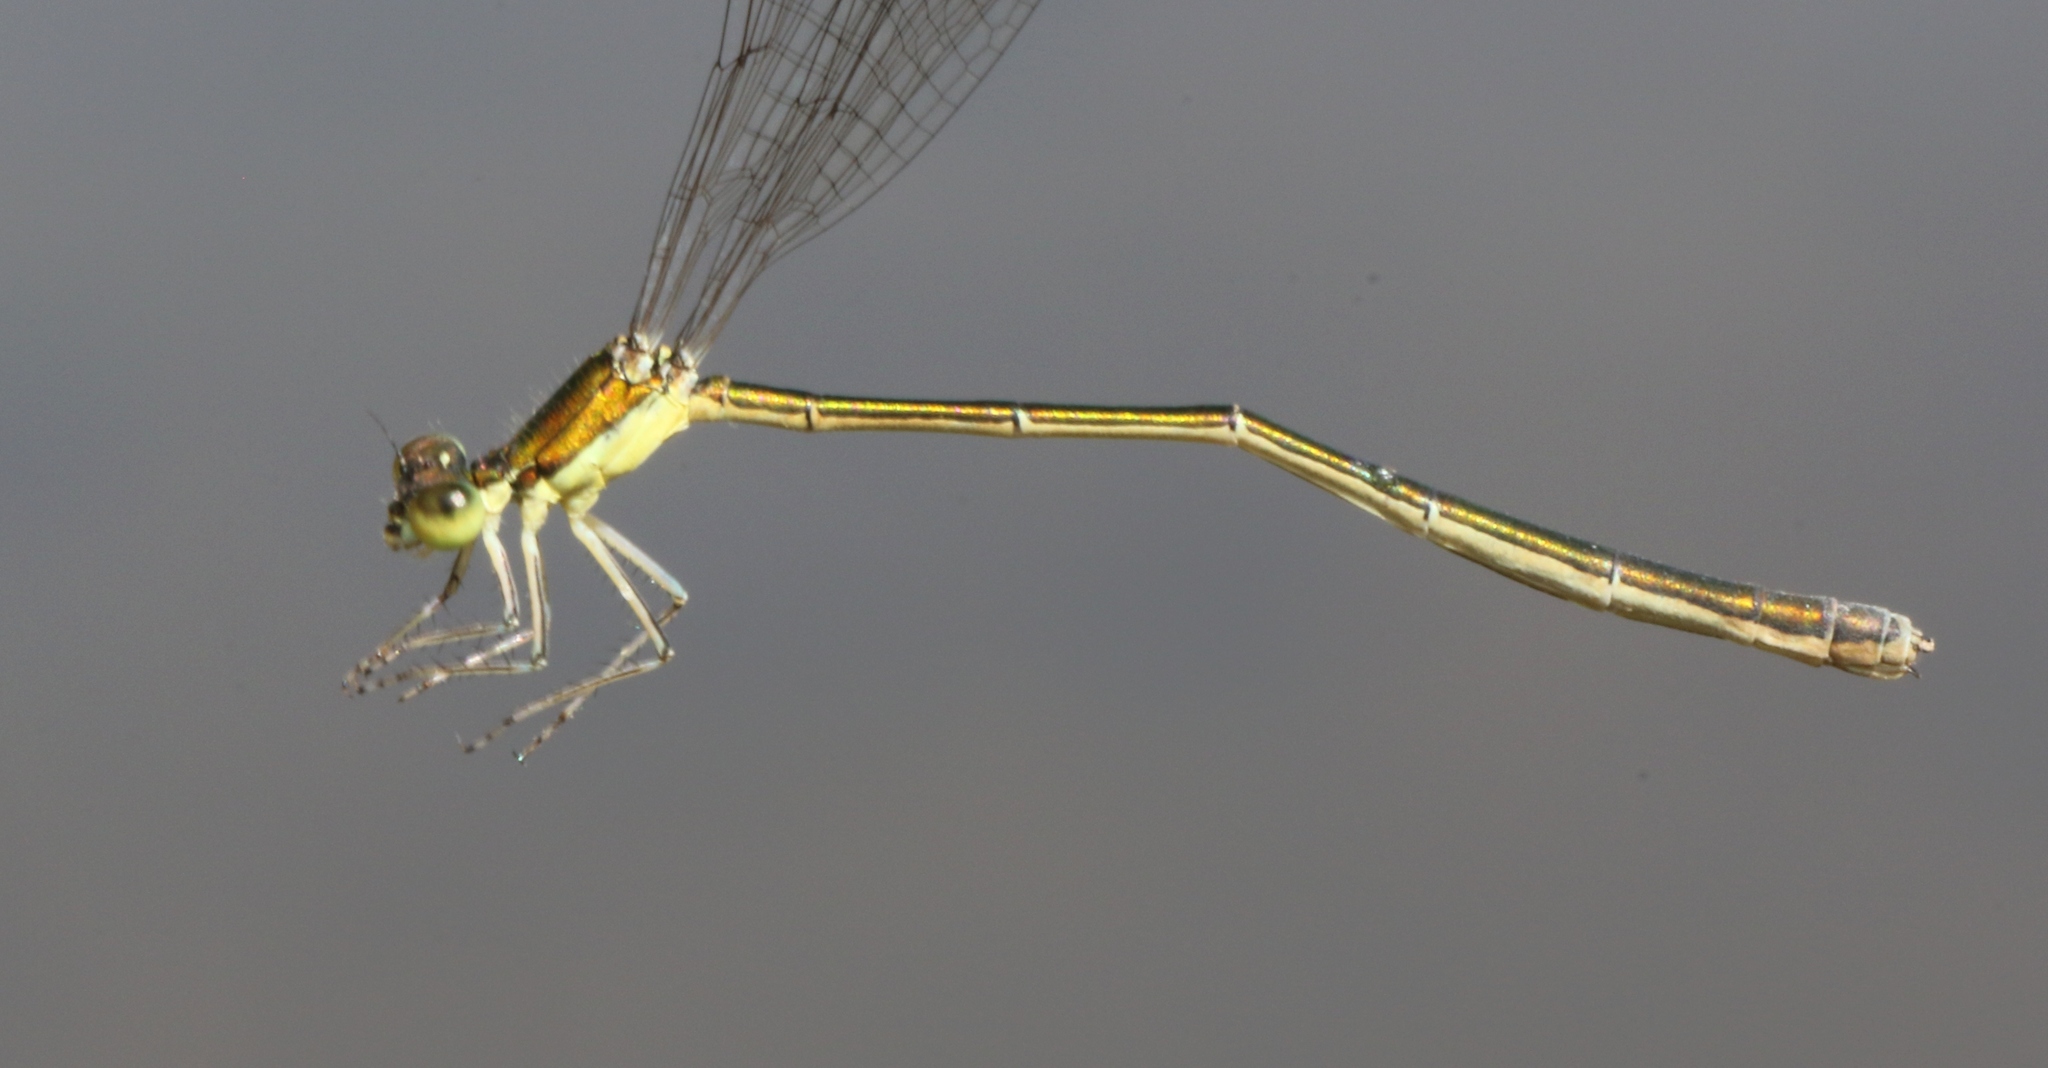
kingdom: Animalia
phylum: Arthropoda
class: Insecta
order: Odonata
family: Coenagrionidae
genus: Nehalennia
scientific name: Nehalennia irene
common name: Sedge sprite
